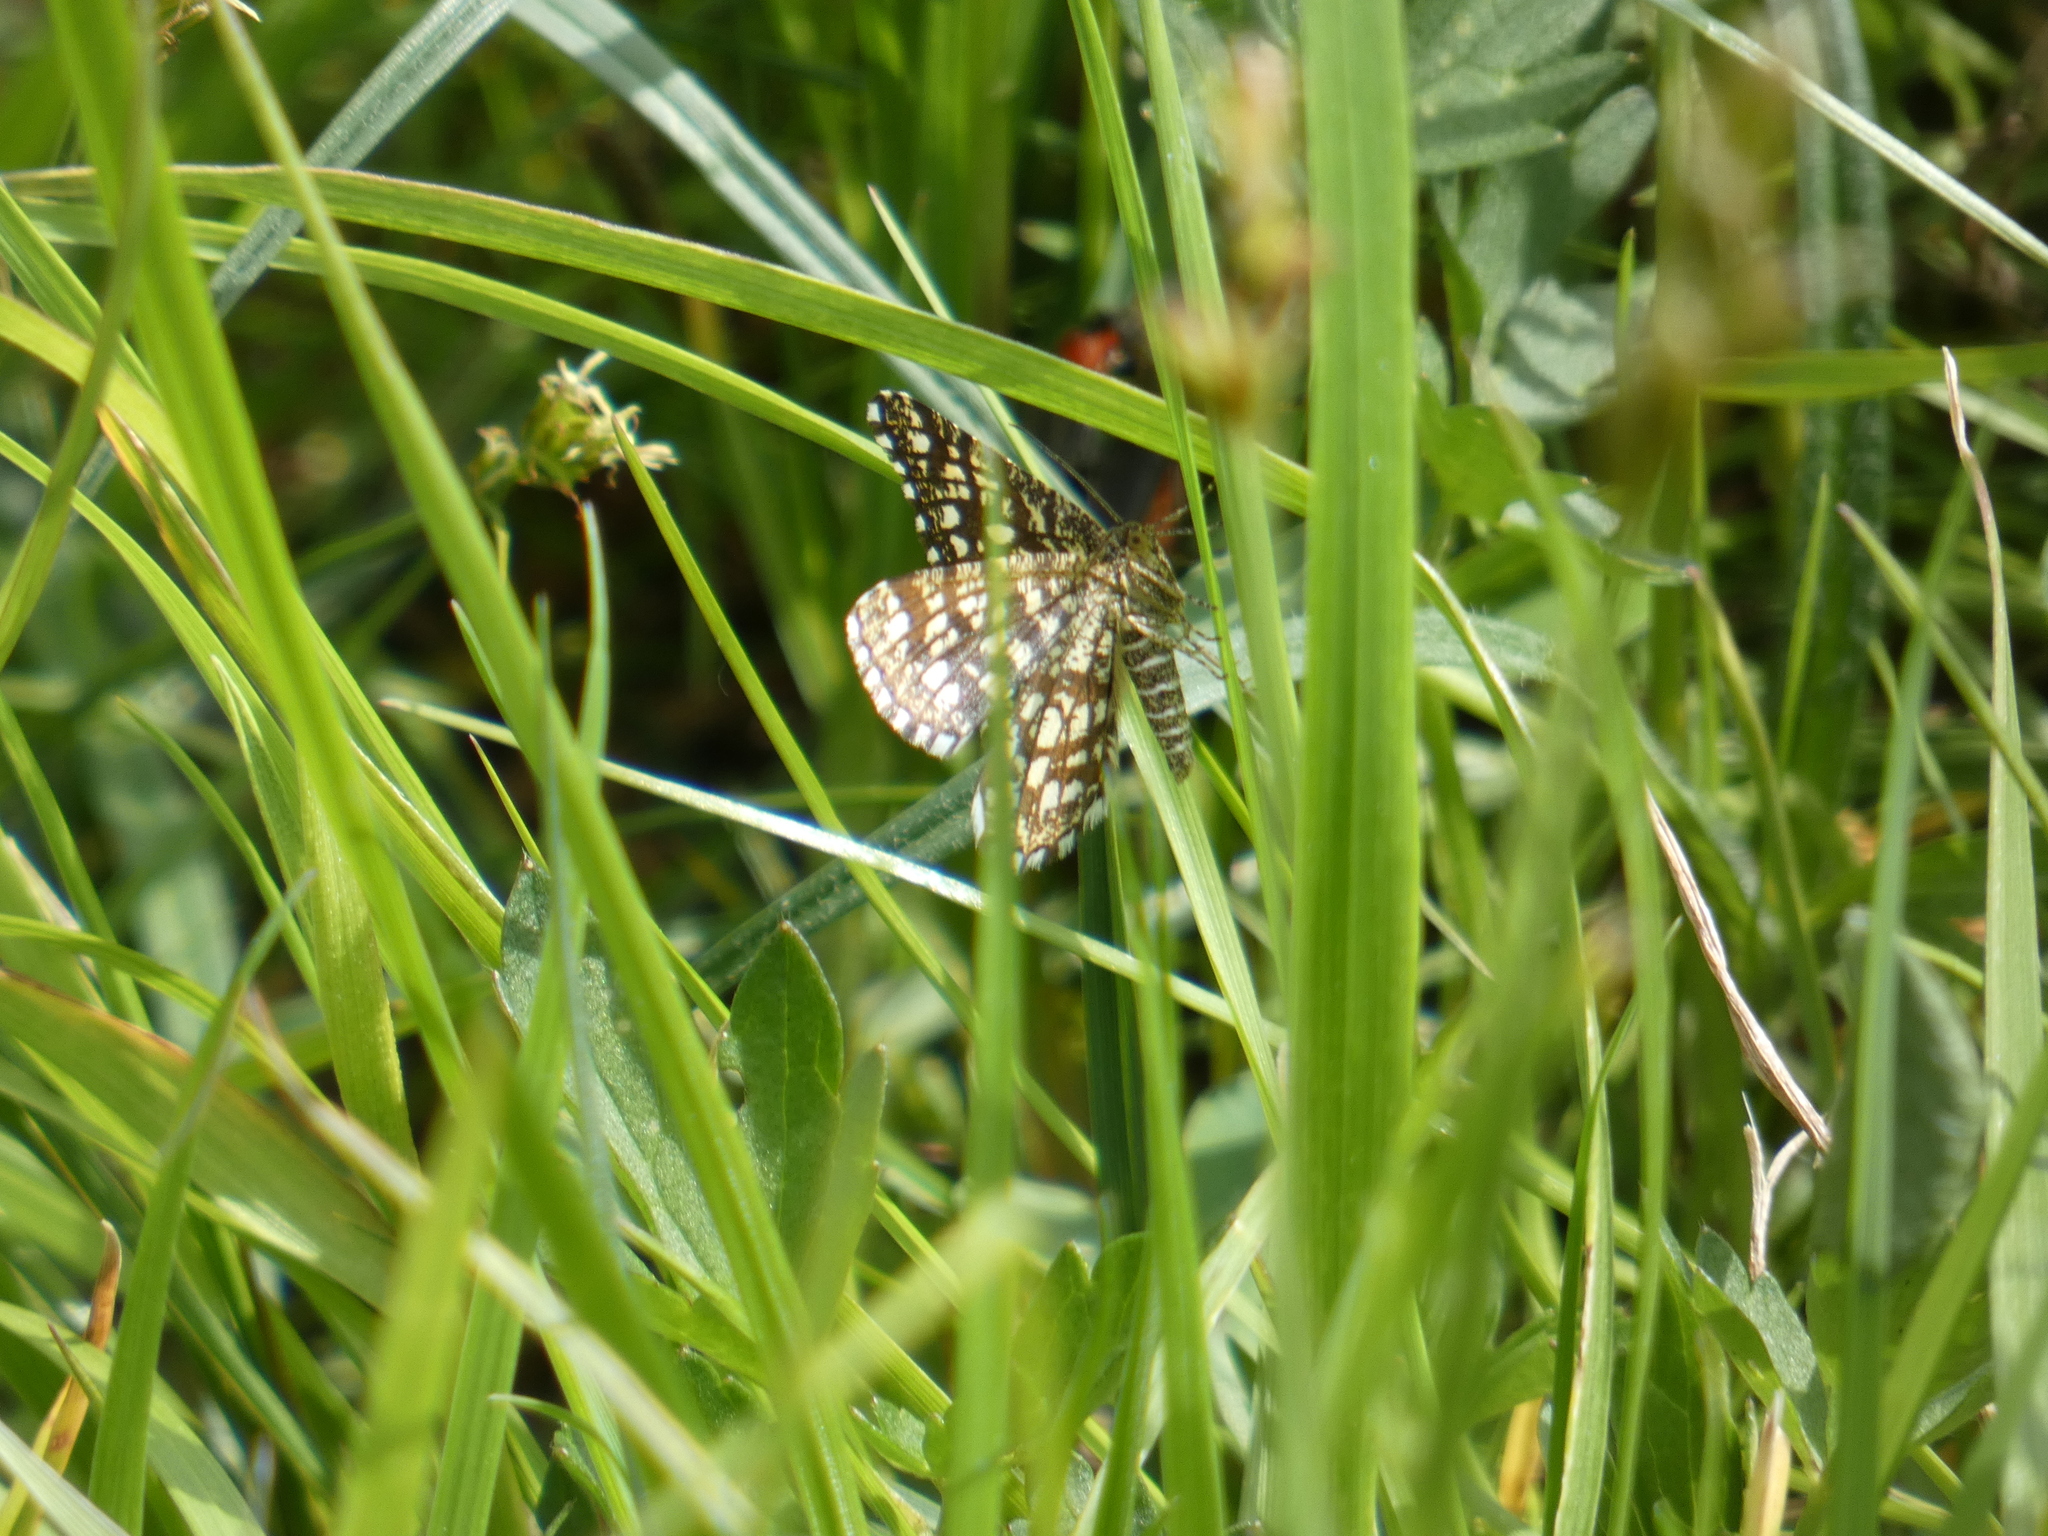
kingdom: Animalia
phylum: Arthropoda
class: Insecta
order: Lepidoptera
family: Geometridae
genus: Chiasmia
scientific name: Chiasmia clathrata
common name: Latticed heath
